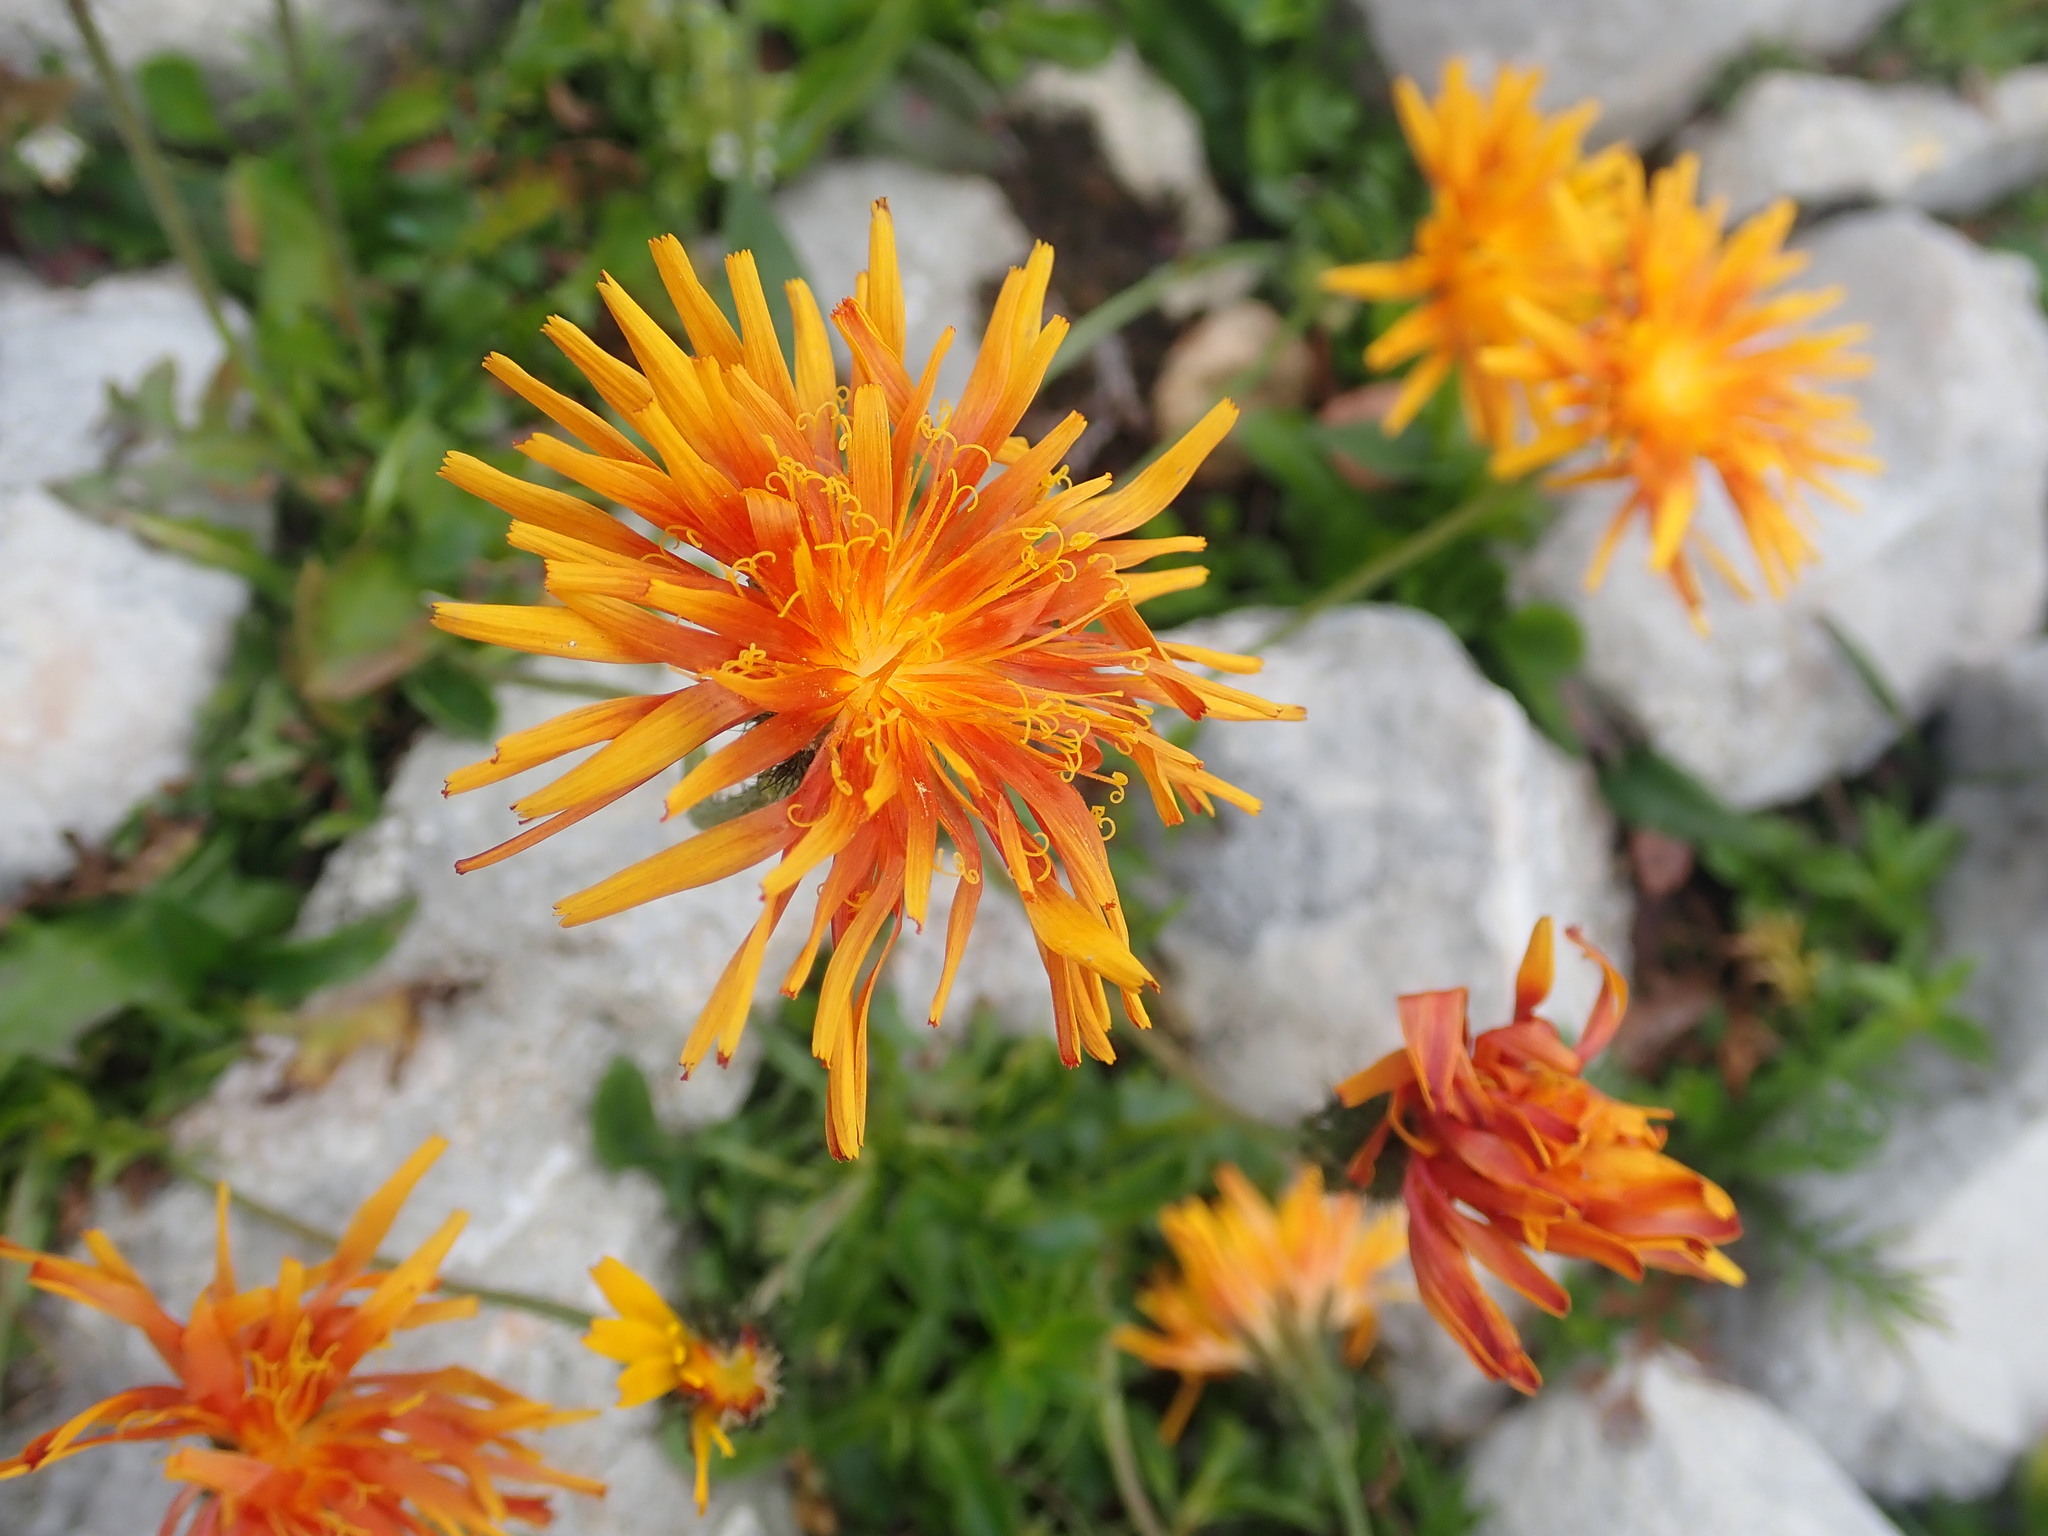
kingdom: Plantae
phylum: Tracheophyta
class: Magnoliopsida
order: Asterales
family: Asteraceae
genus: Crepis
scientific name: Crepis aurea
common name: Golden hawk's-beard
